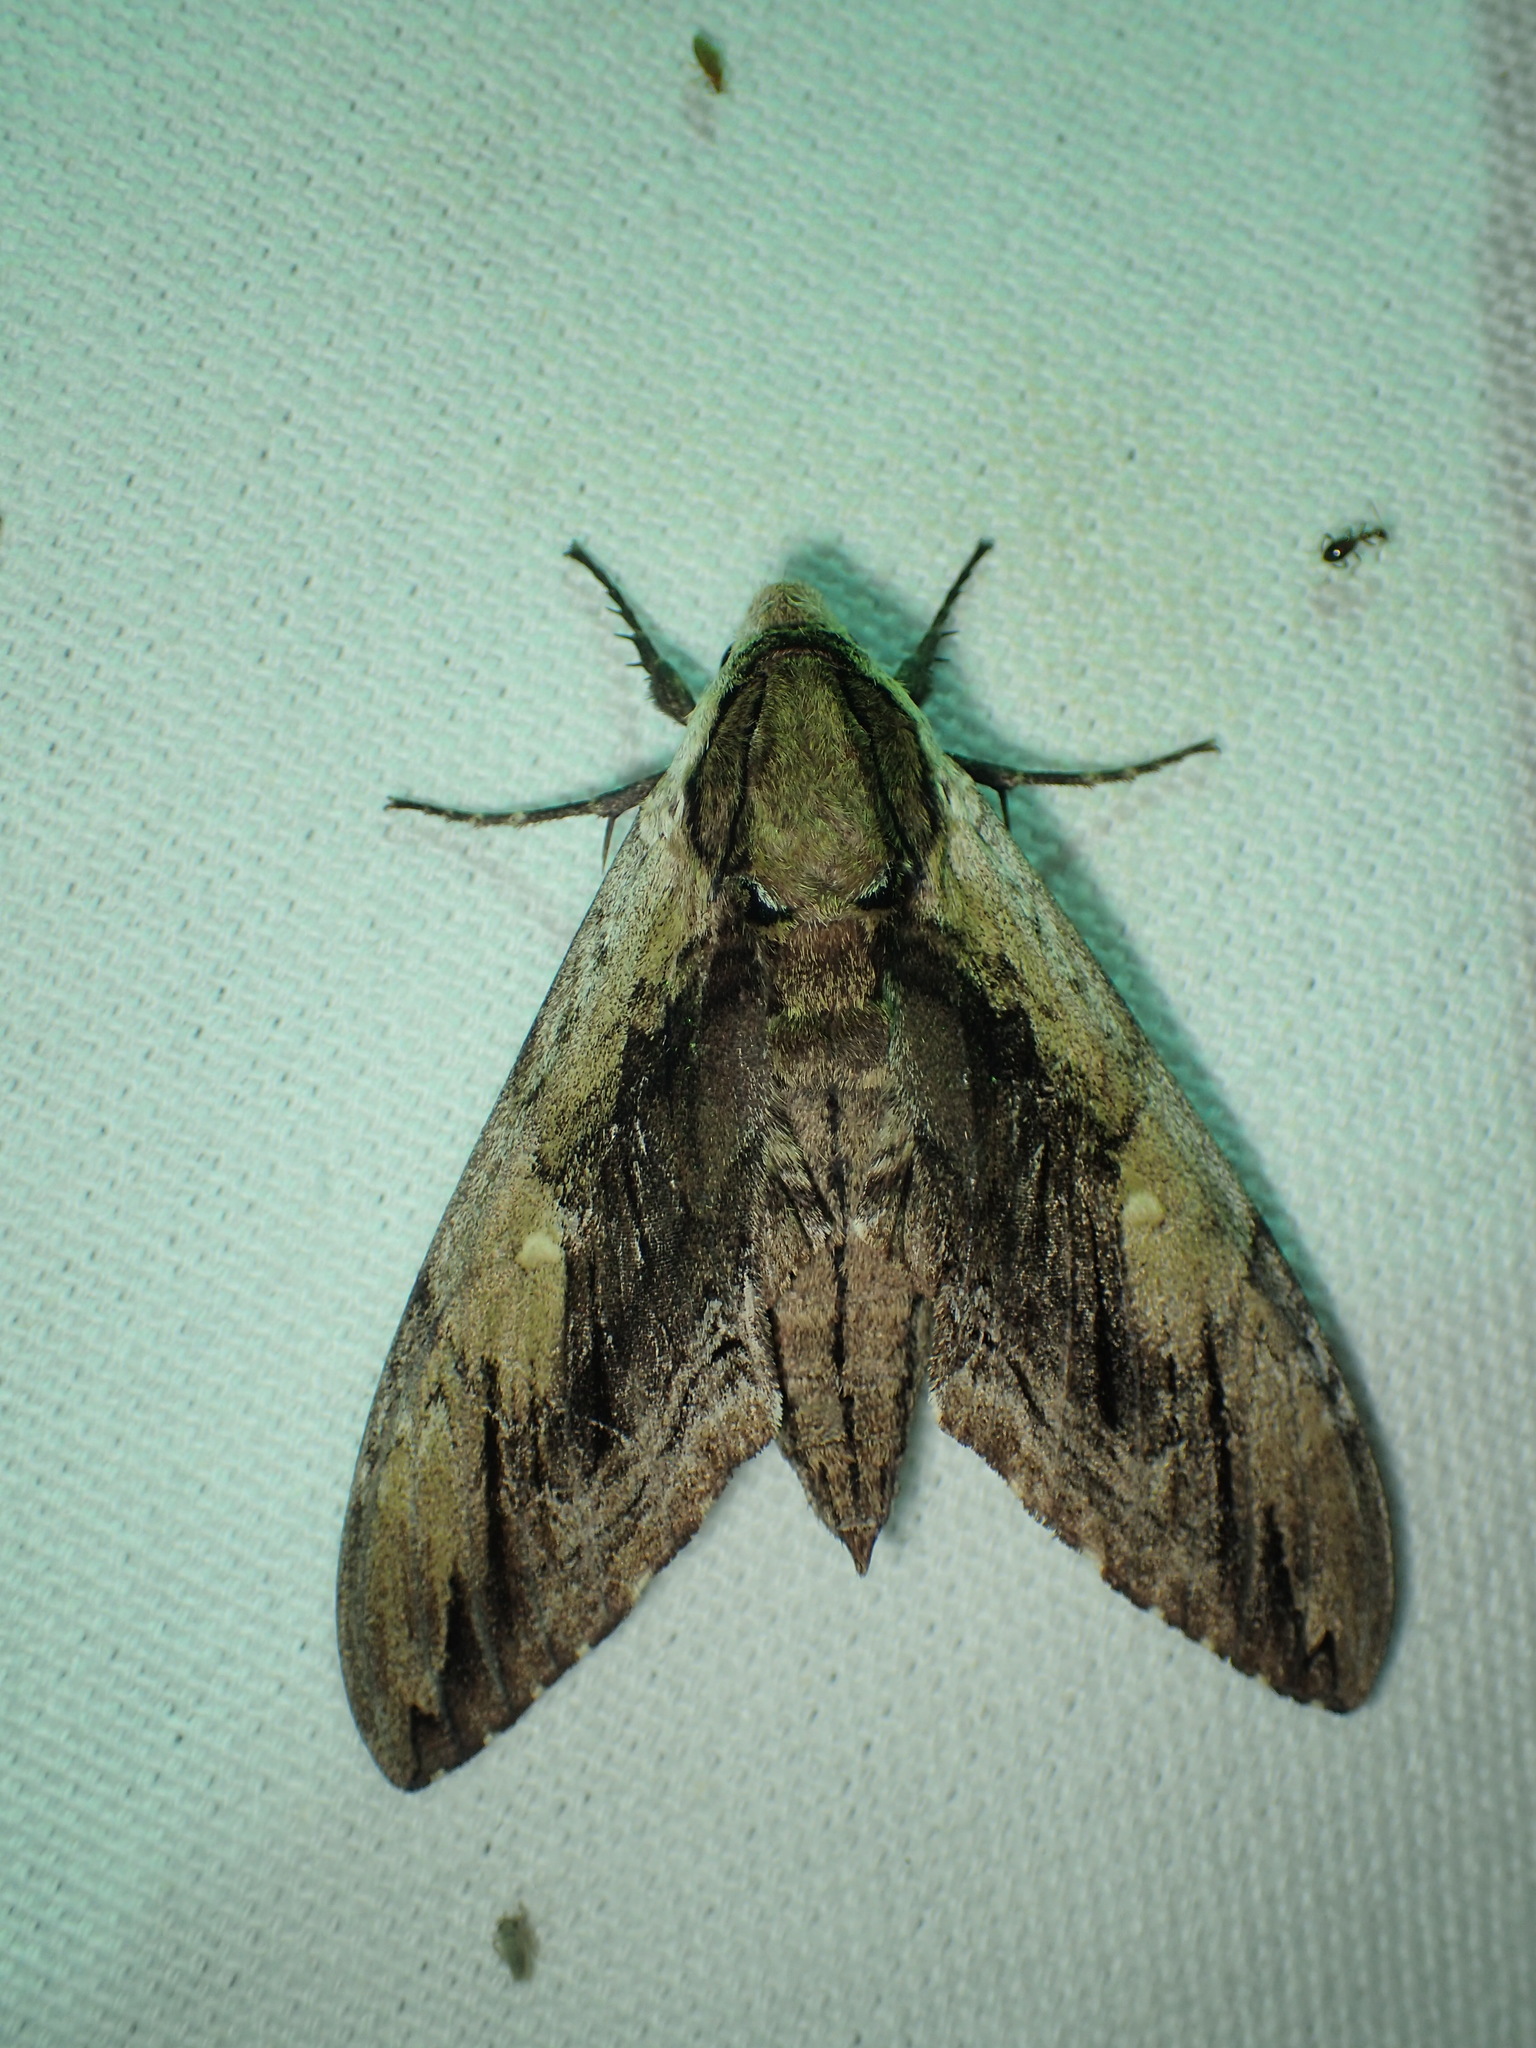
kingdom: Animalia
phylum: Arthropoda
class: Insecta
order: Lepidoptera
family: Sphingidae
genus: Ceratomia
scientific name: Ceratomia amyntor
